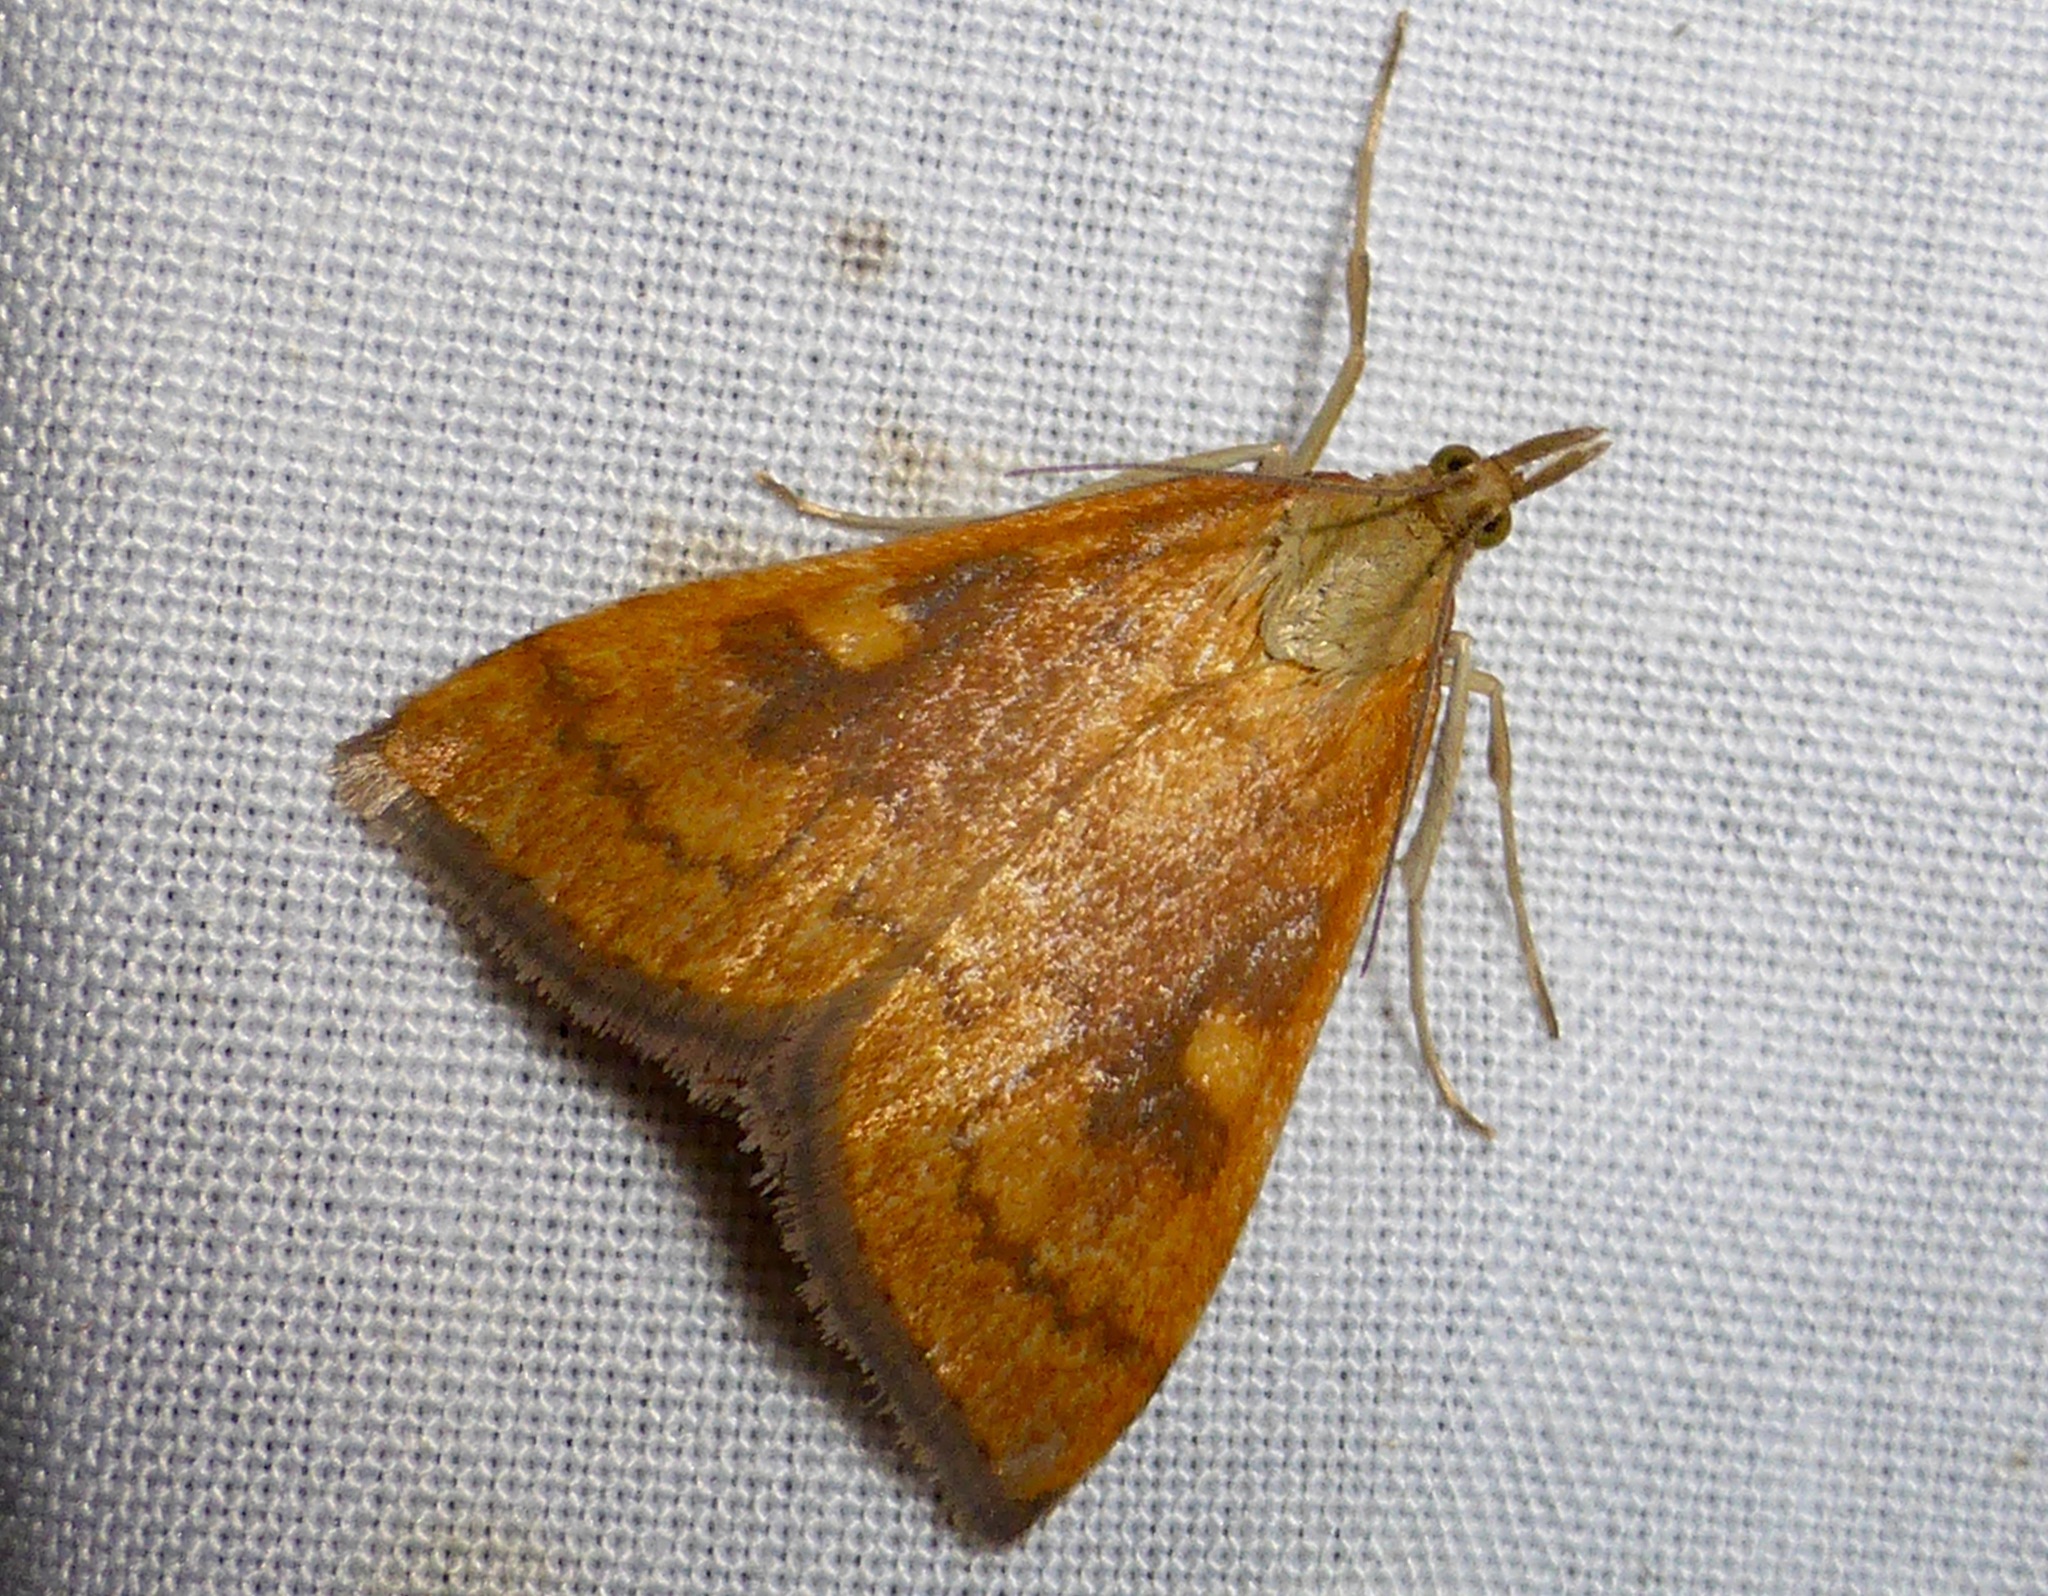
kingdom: Animalia
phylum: Arthropoda
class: Insecta
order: Lepidoptera
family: Crambidae
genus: Udea
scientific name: Udea Mnesictena flavidalis
